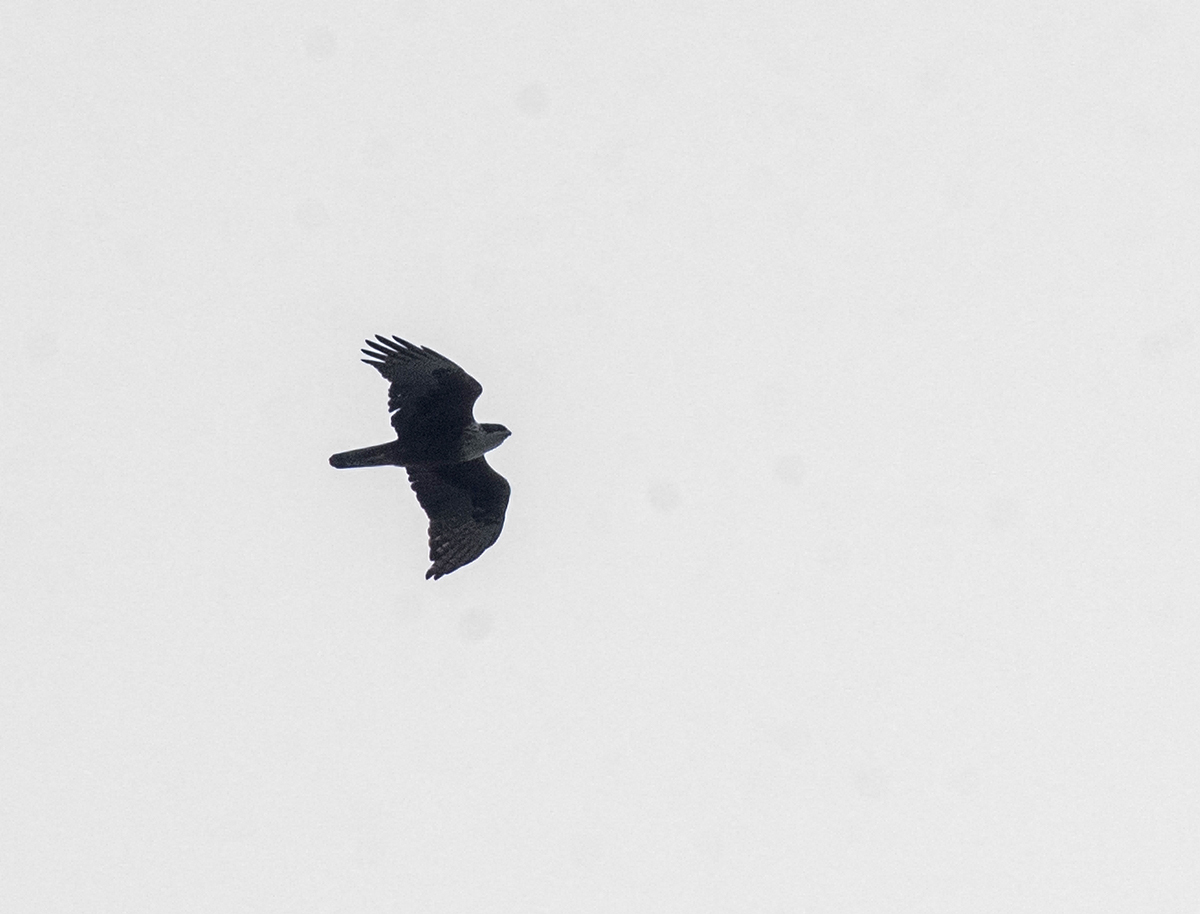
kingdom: Animalia
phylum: Chordata
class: Aves
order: Accipitriformes
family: Accipitridae
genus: Lophotriorchis
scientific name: Lophotriorchis kienerii
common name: Rufous-bellied eagle
